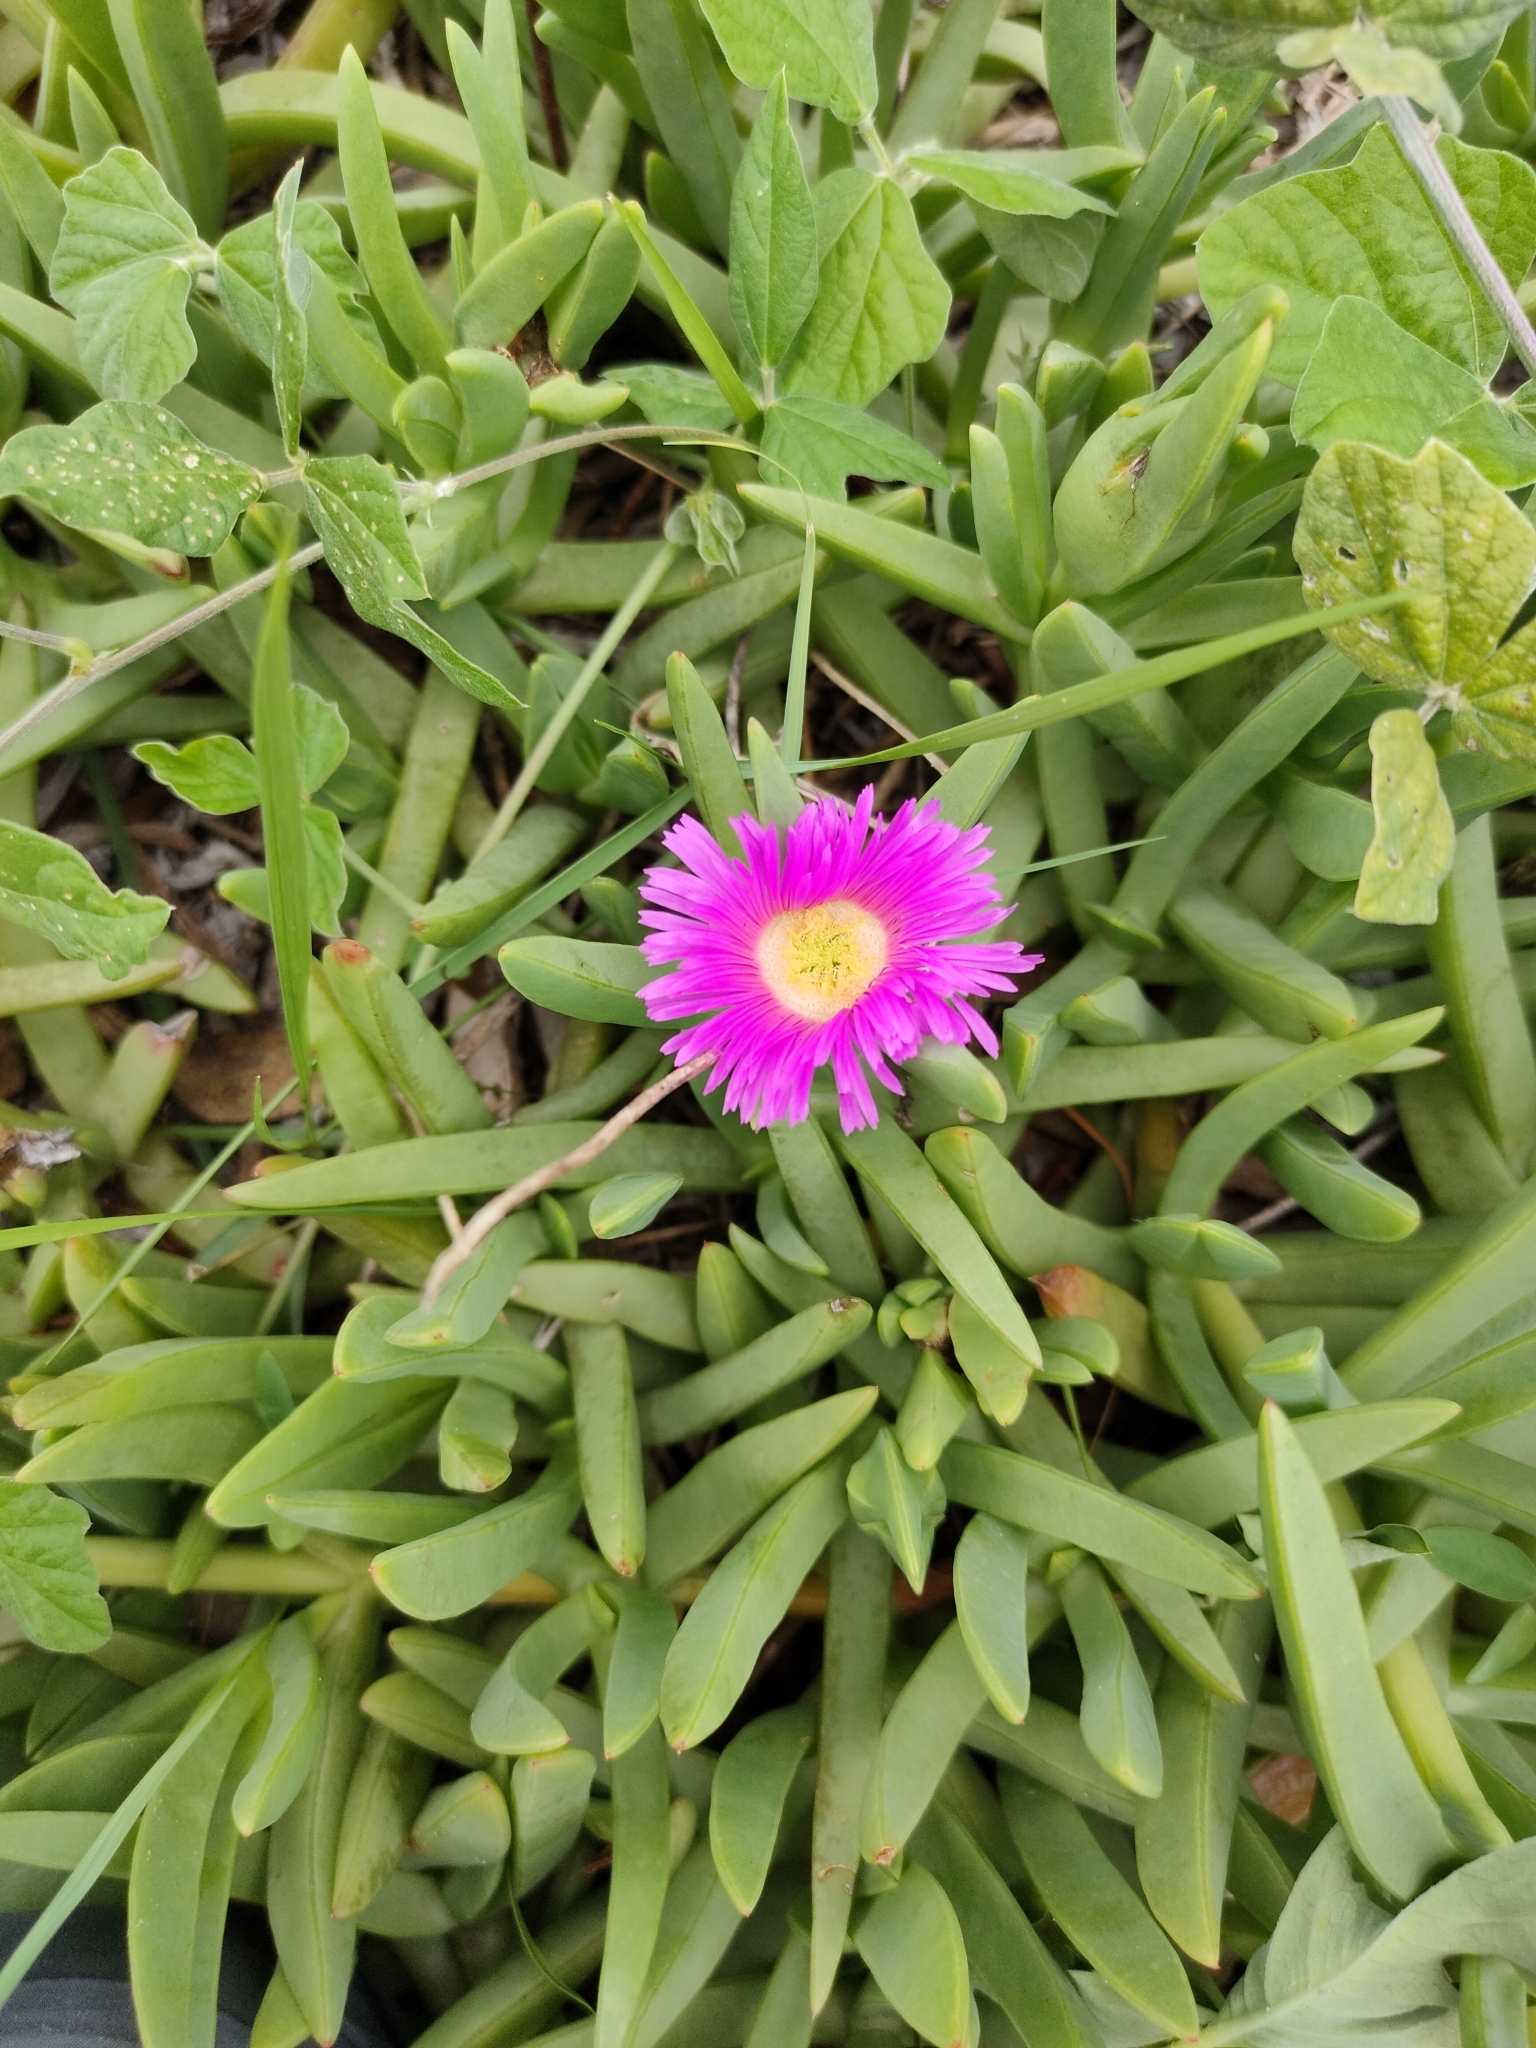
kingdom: Plantae
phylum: Tracheophyta
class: Magnoliopsida
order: Caryophyllales
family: Aizoaceae
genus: Carpobrotus
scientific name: Carpobrotus glaucescens
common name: Angular sea-fig
